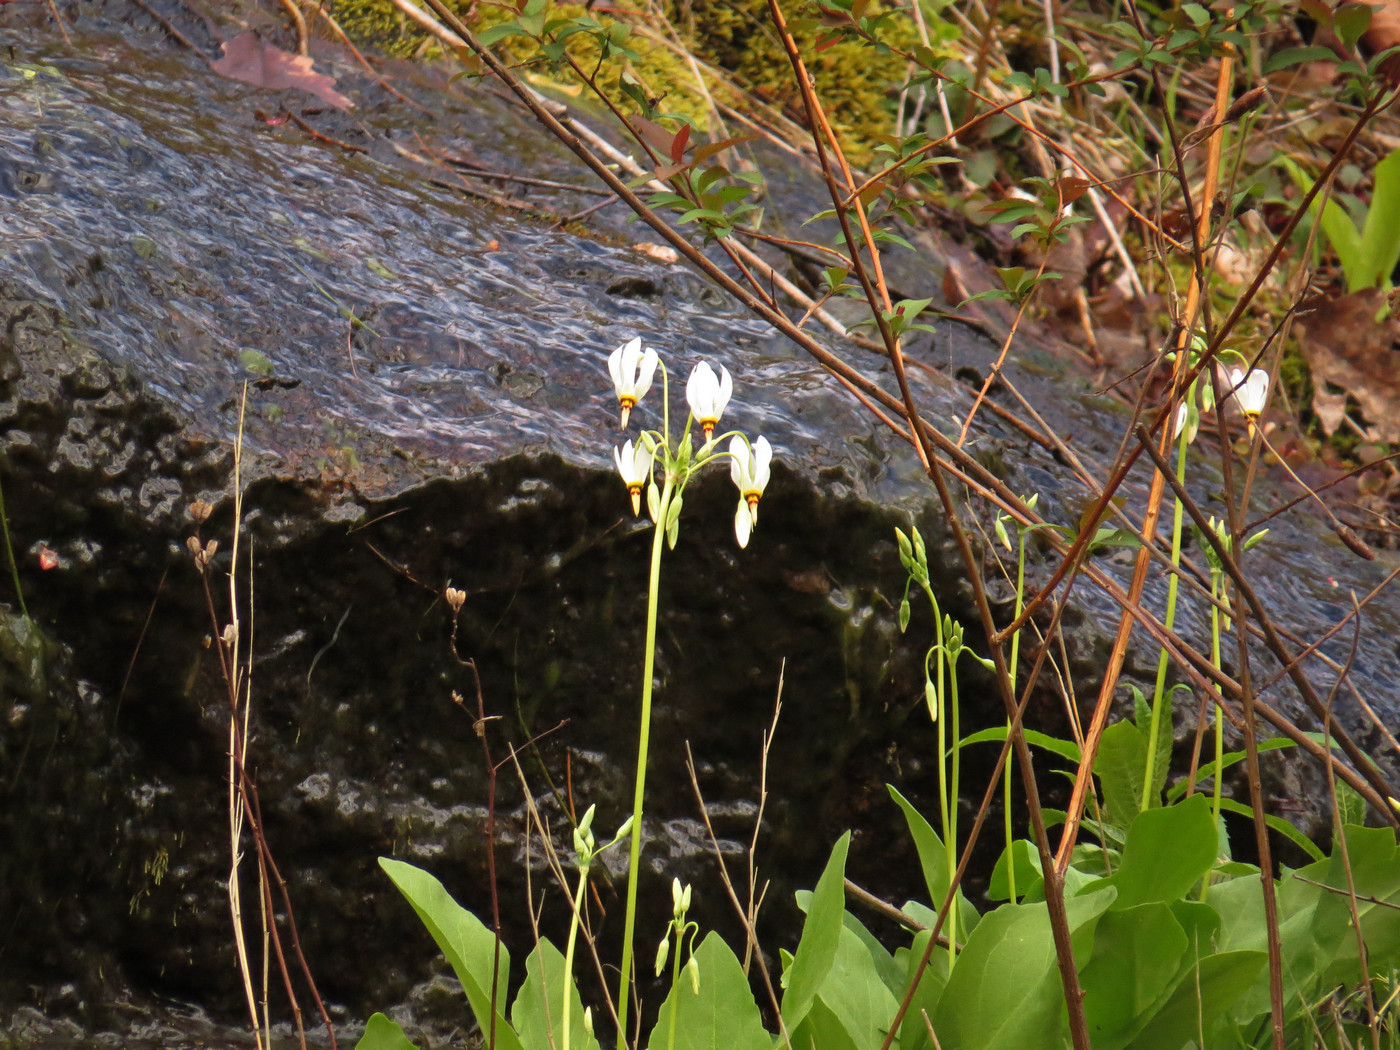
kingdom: Plantae
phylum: Tracheophyta
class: Magnoliopsida
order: Ericales
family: Primulaceae
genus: Dodecatheon
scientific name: Dodecatheon meadia
